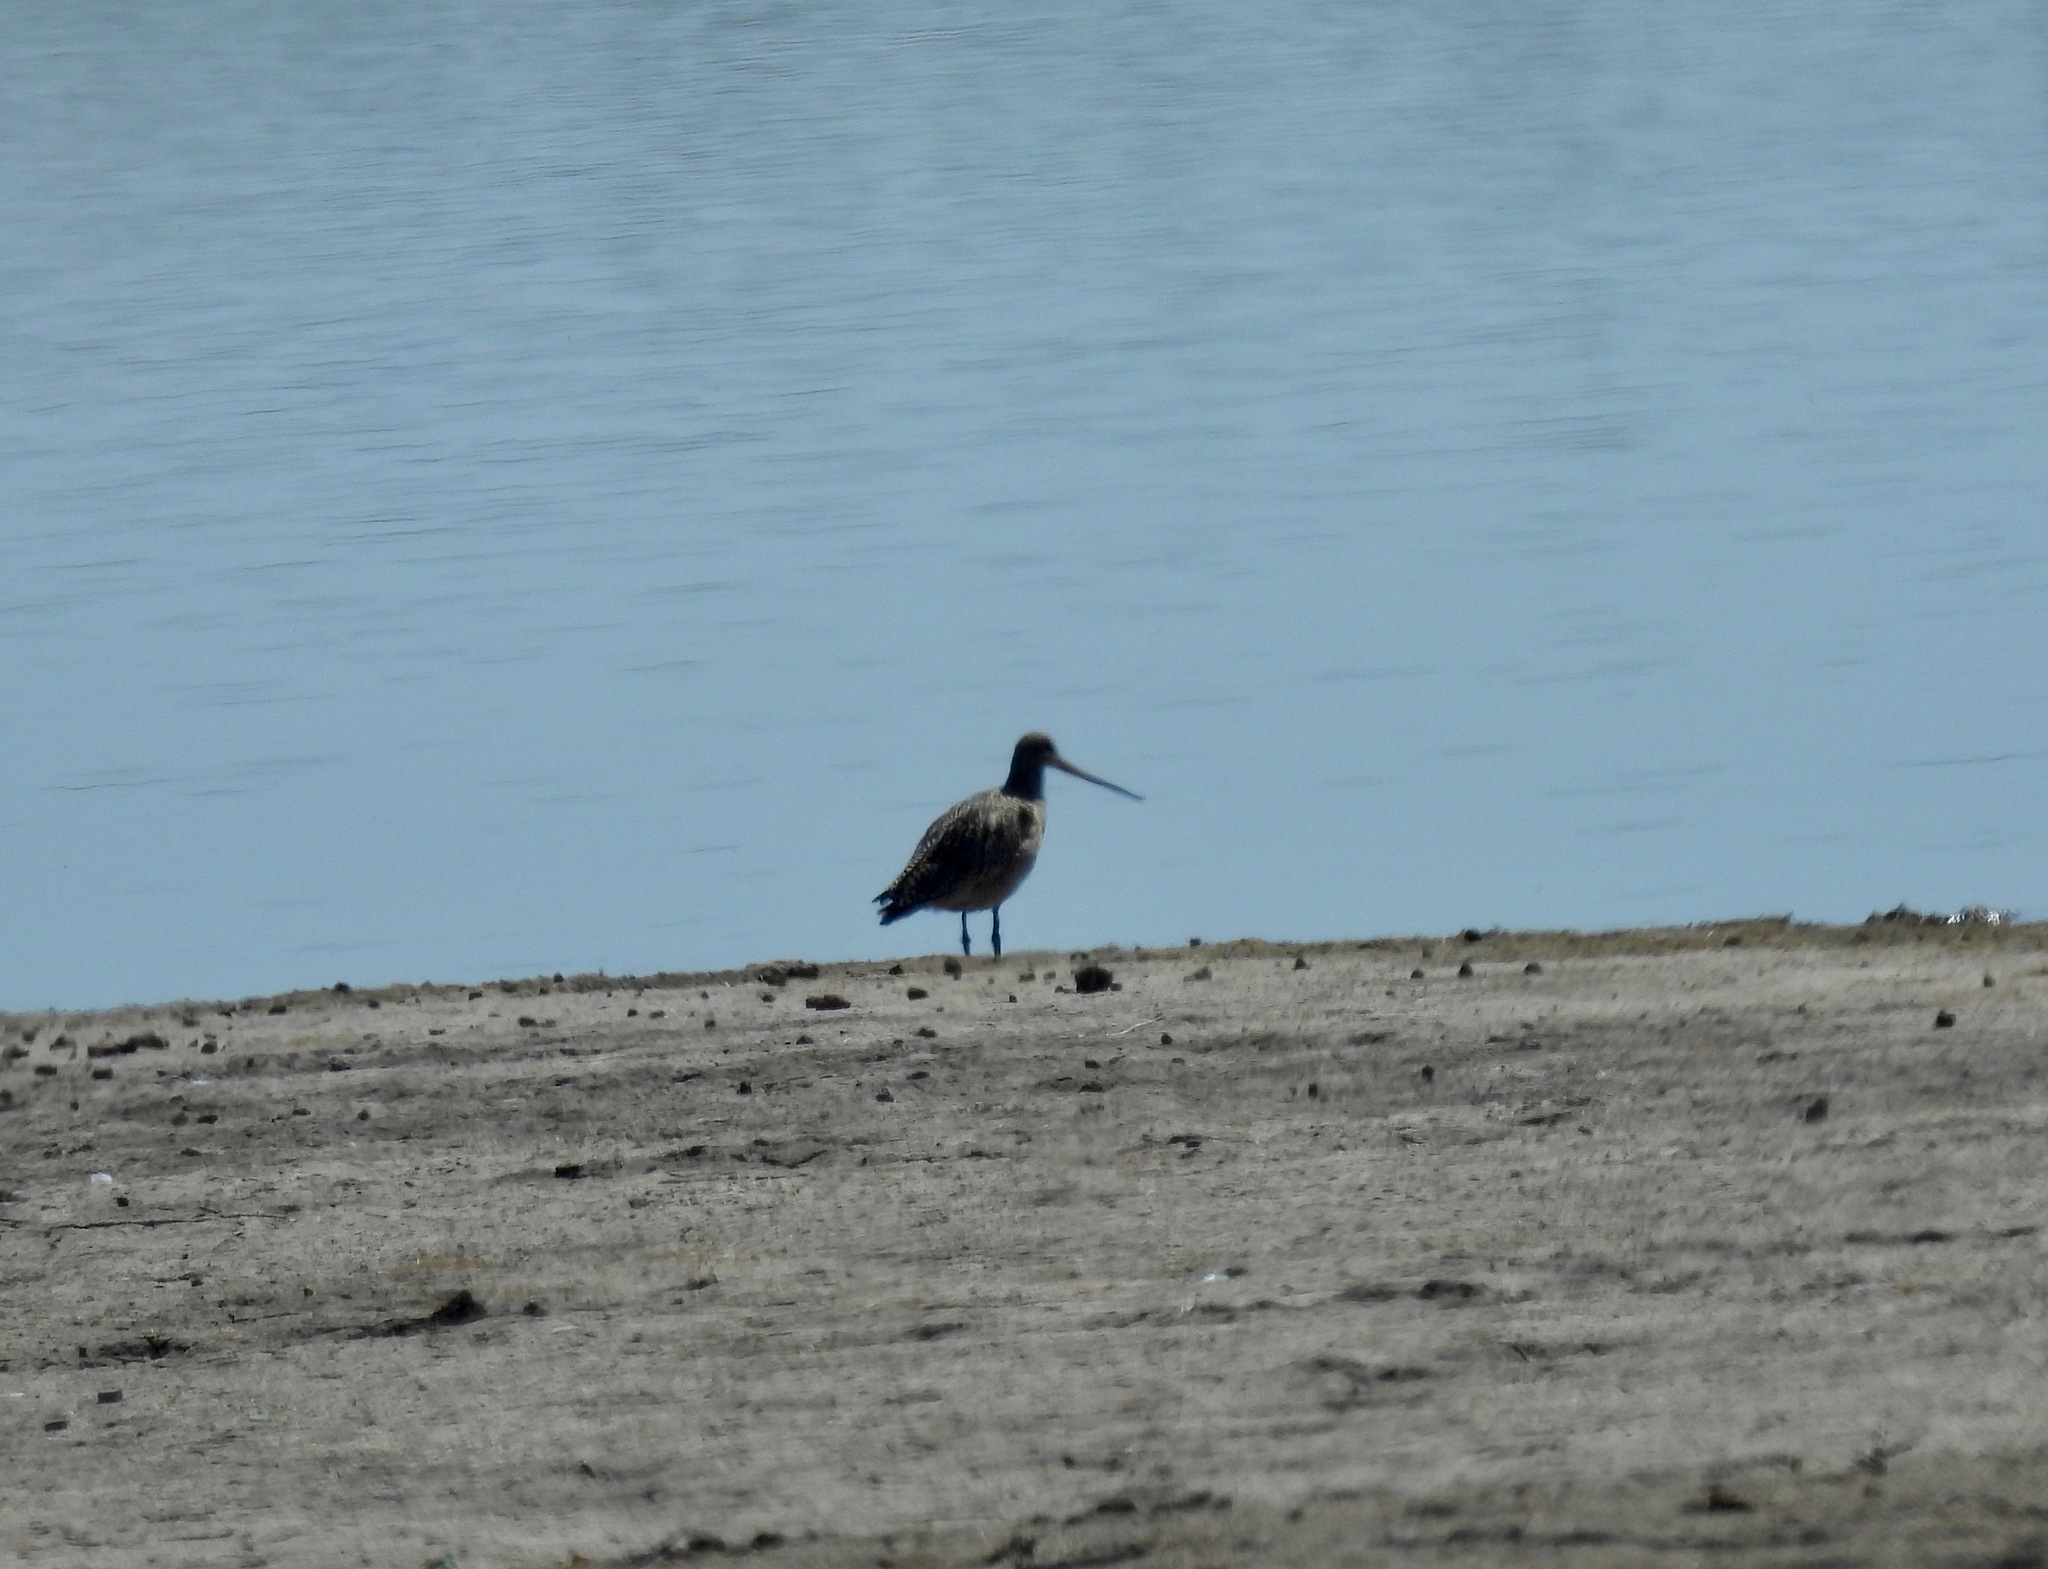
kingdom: Animalia
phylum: Chordata
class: Aves
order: Charadriiformes
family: Scolopacidae
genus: Limosa
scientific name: Limosa fedoa
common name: Marbled godwit
